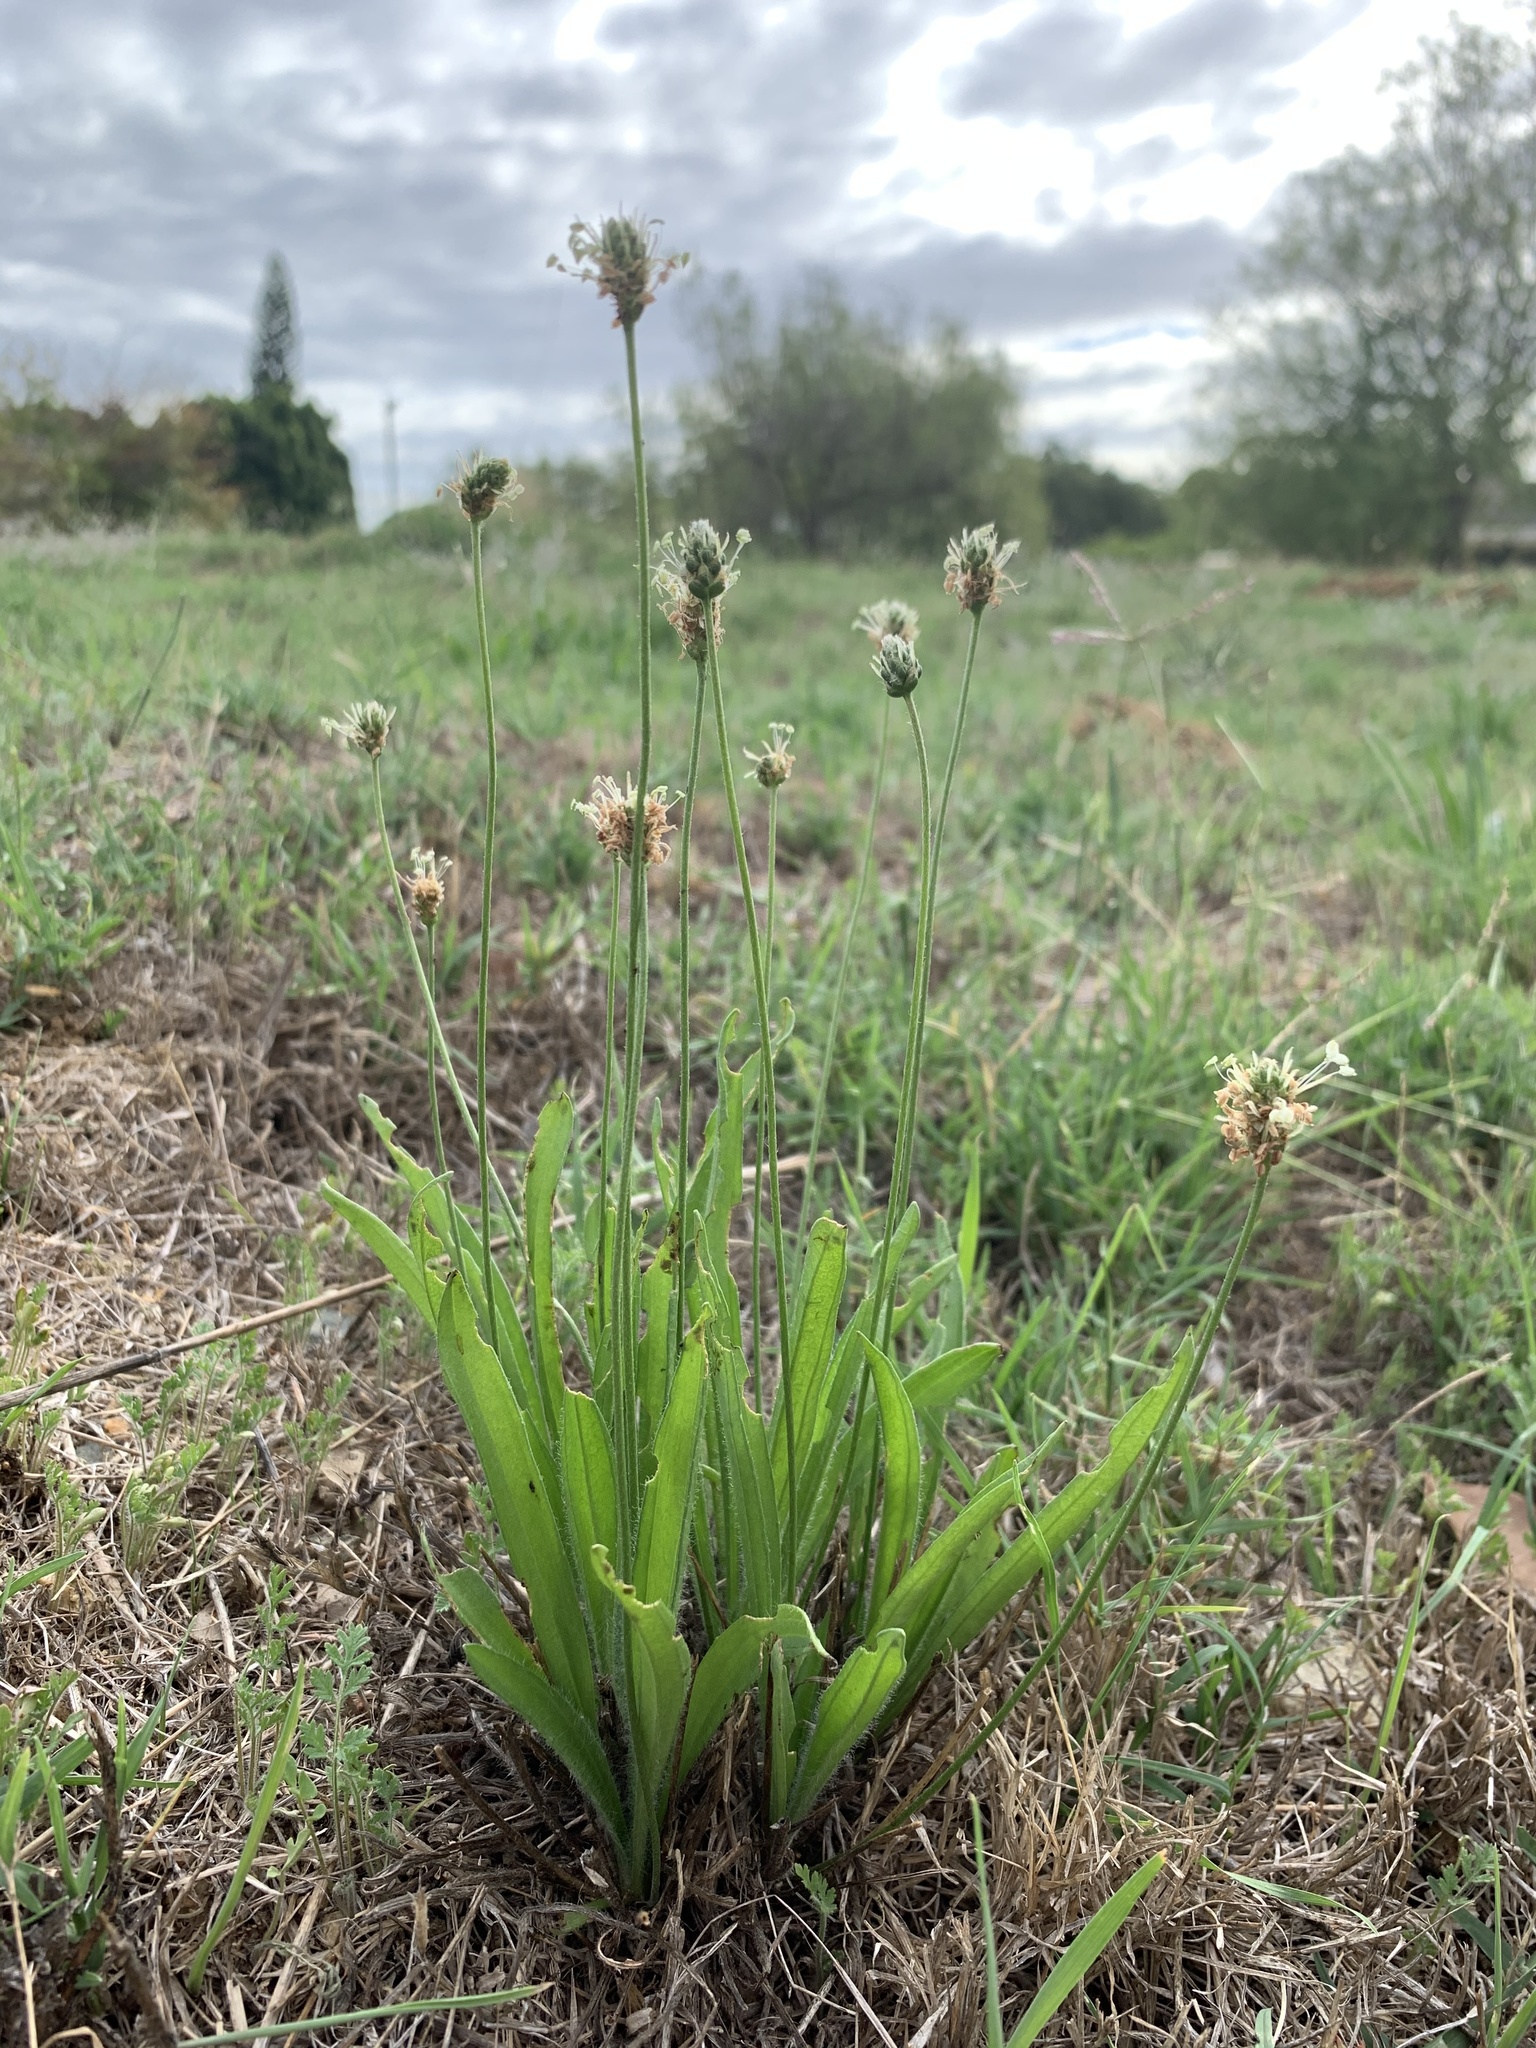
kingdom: Plantae
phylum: Tracheophyta
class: Magnoliopsida
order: Lamiales
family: Plantaginaceae
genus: Plantago
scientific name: Plantago lanceolata
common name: Ribwort plantain
